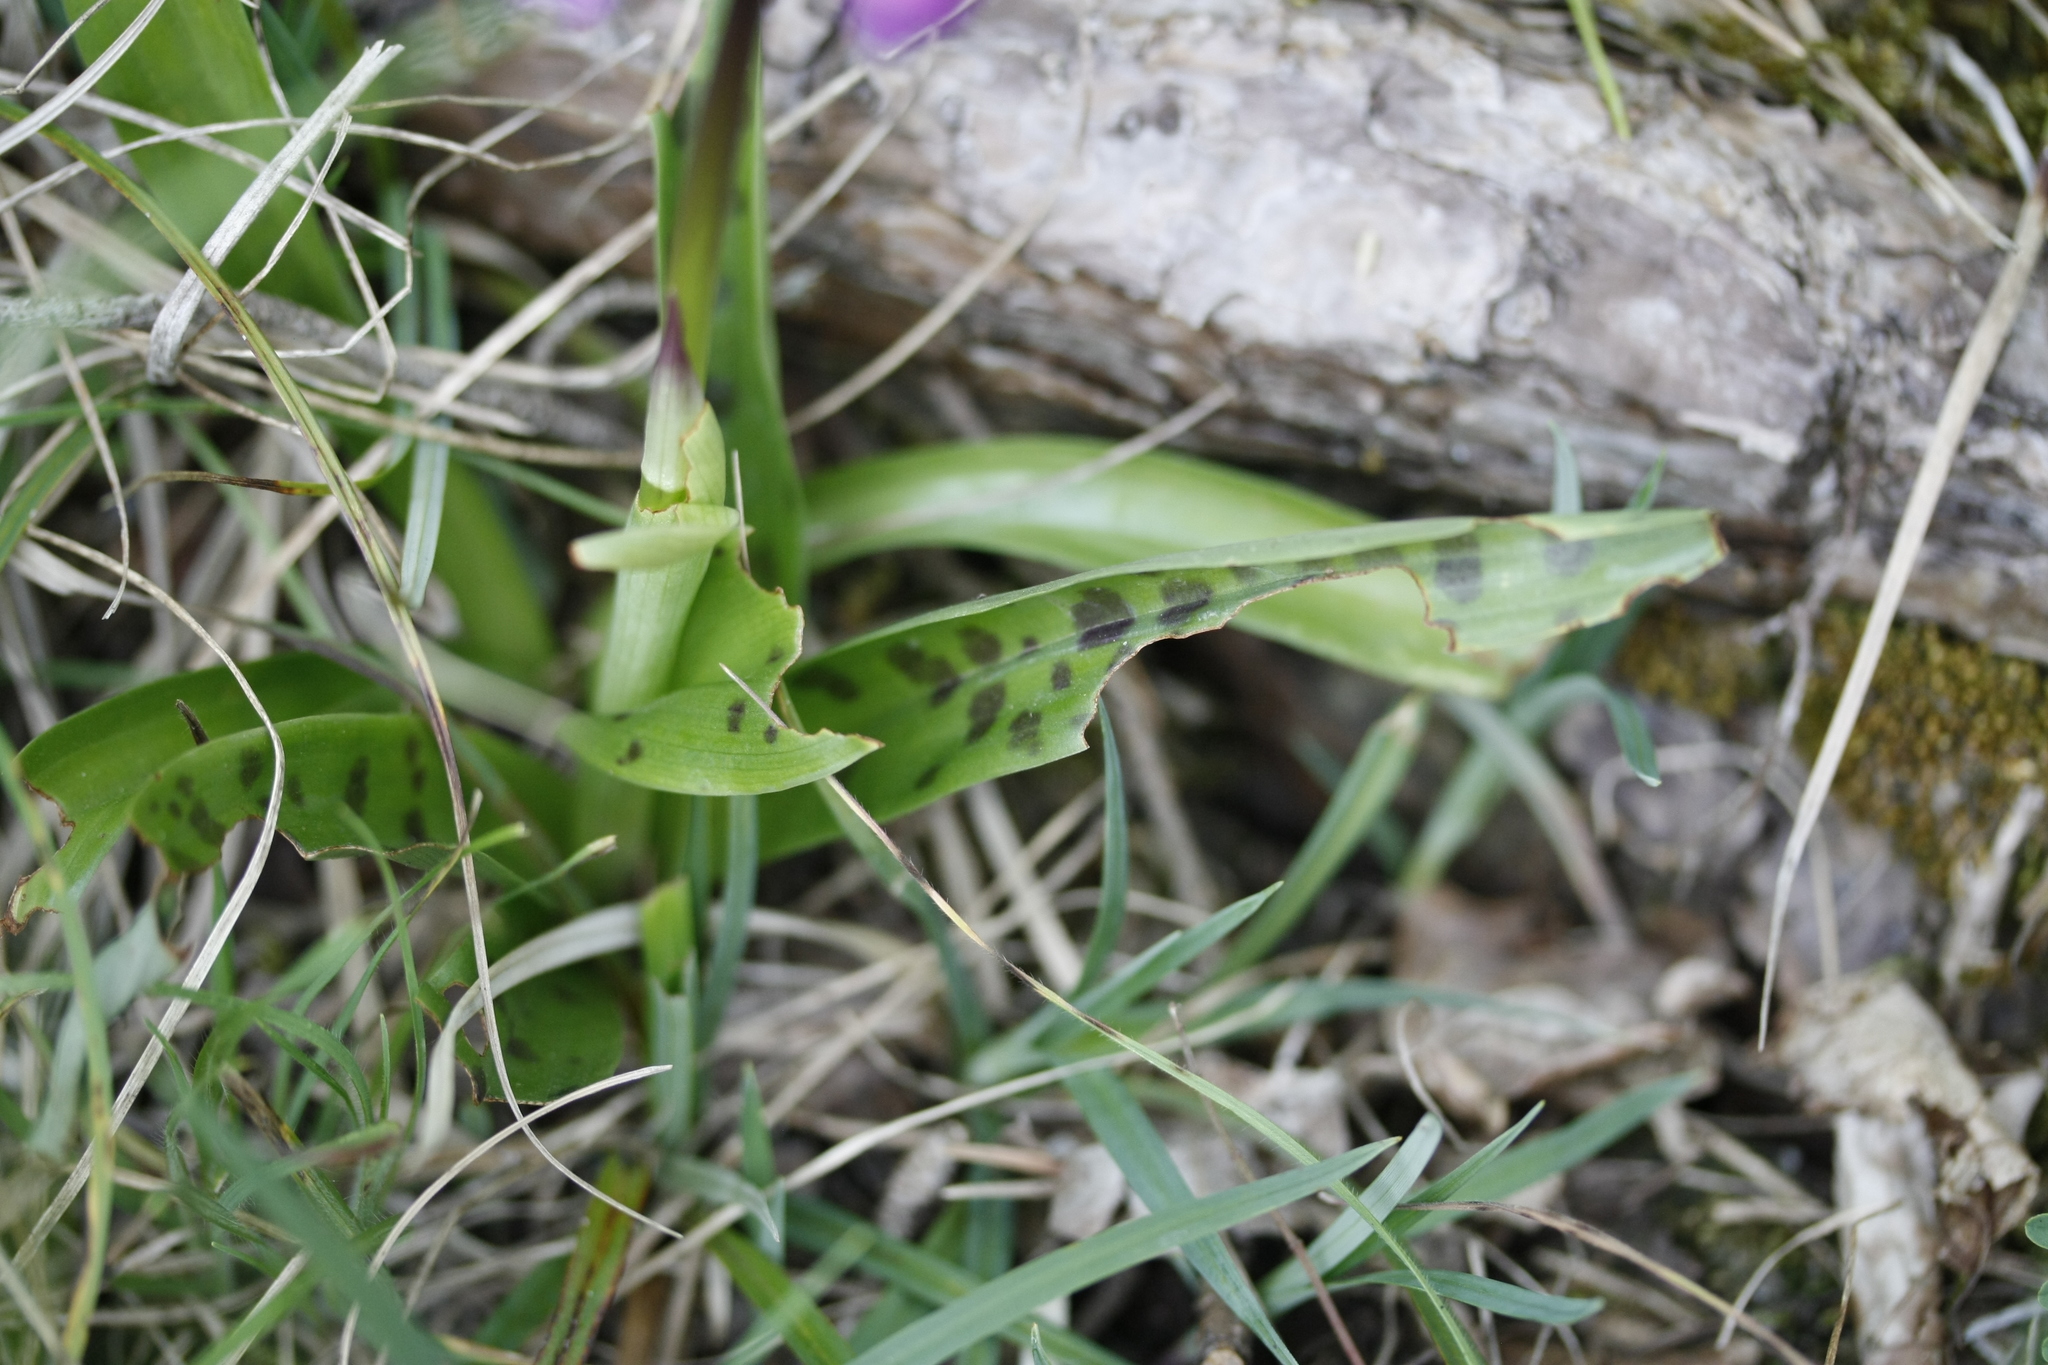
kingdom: Plantae
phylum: Tracheophyta
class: Liliopsida
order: Asparagales
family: Orchidaceae
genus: Orchis
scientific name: Orchis mascula
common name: Early-purple orchid
